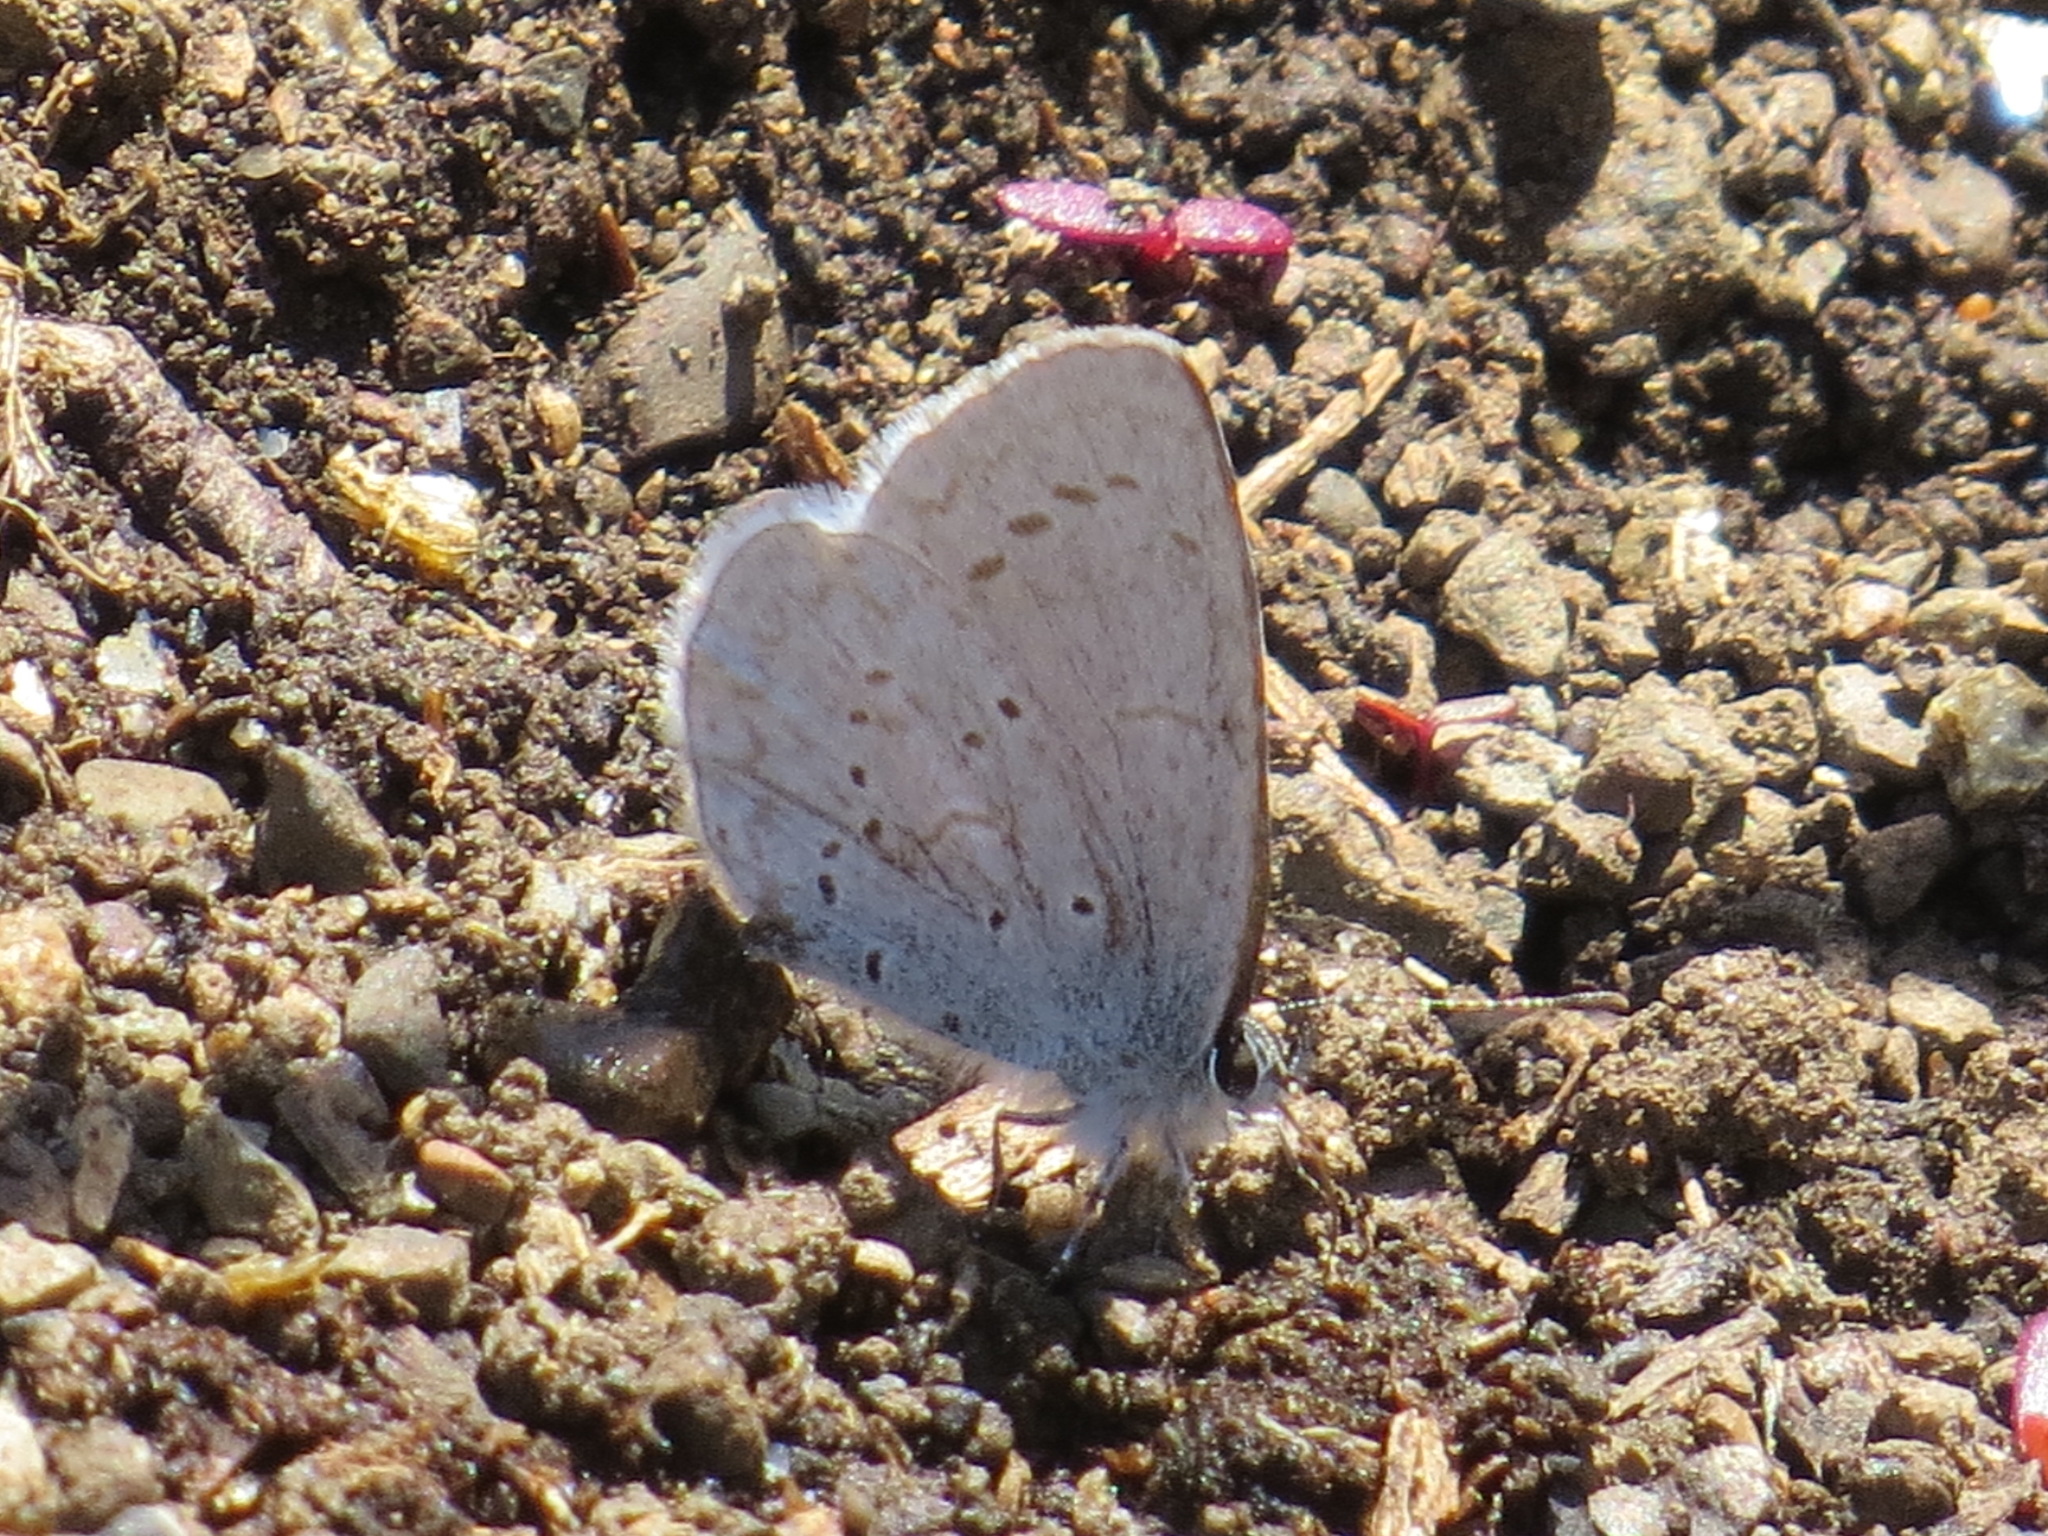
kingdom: Animalia
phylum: Arthropoda
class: Insecta
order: Lepidoptera
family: Lycaenidae
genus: Celastrina
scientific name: Celastrina ladon
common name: Spring azure
